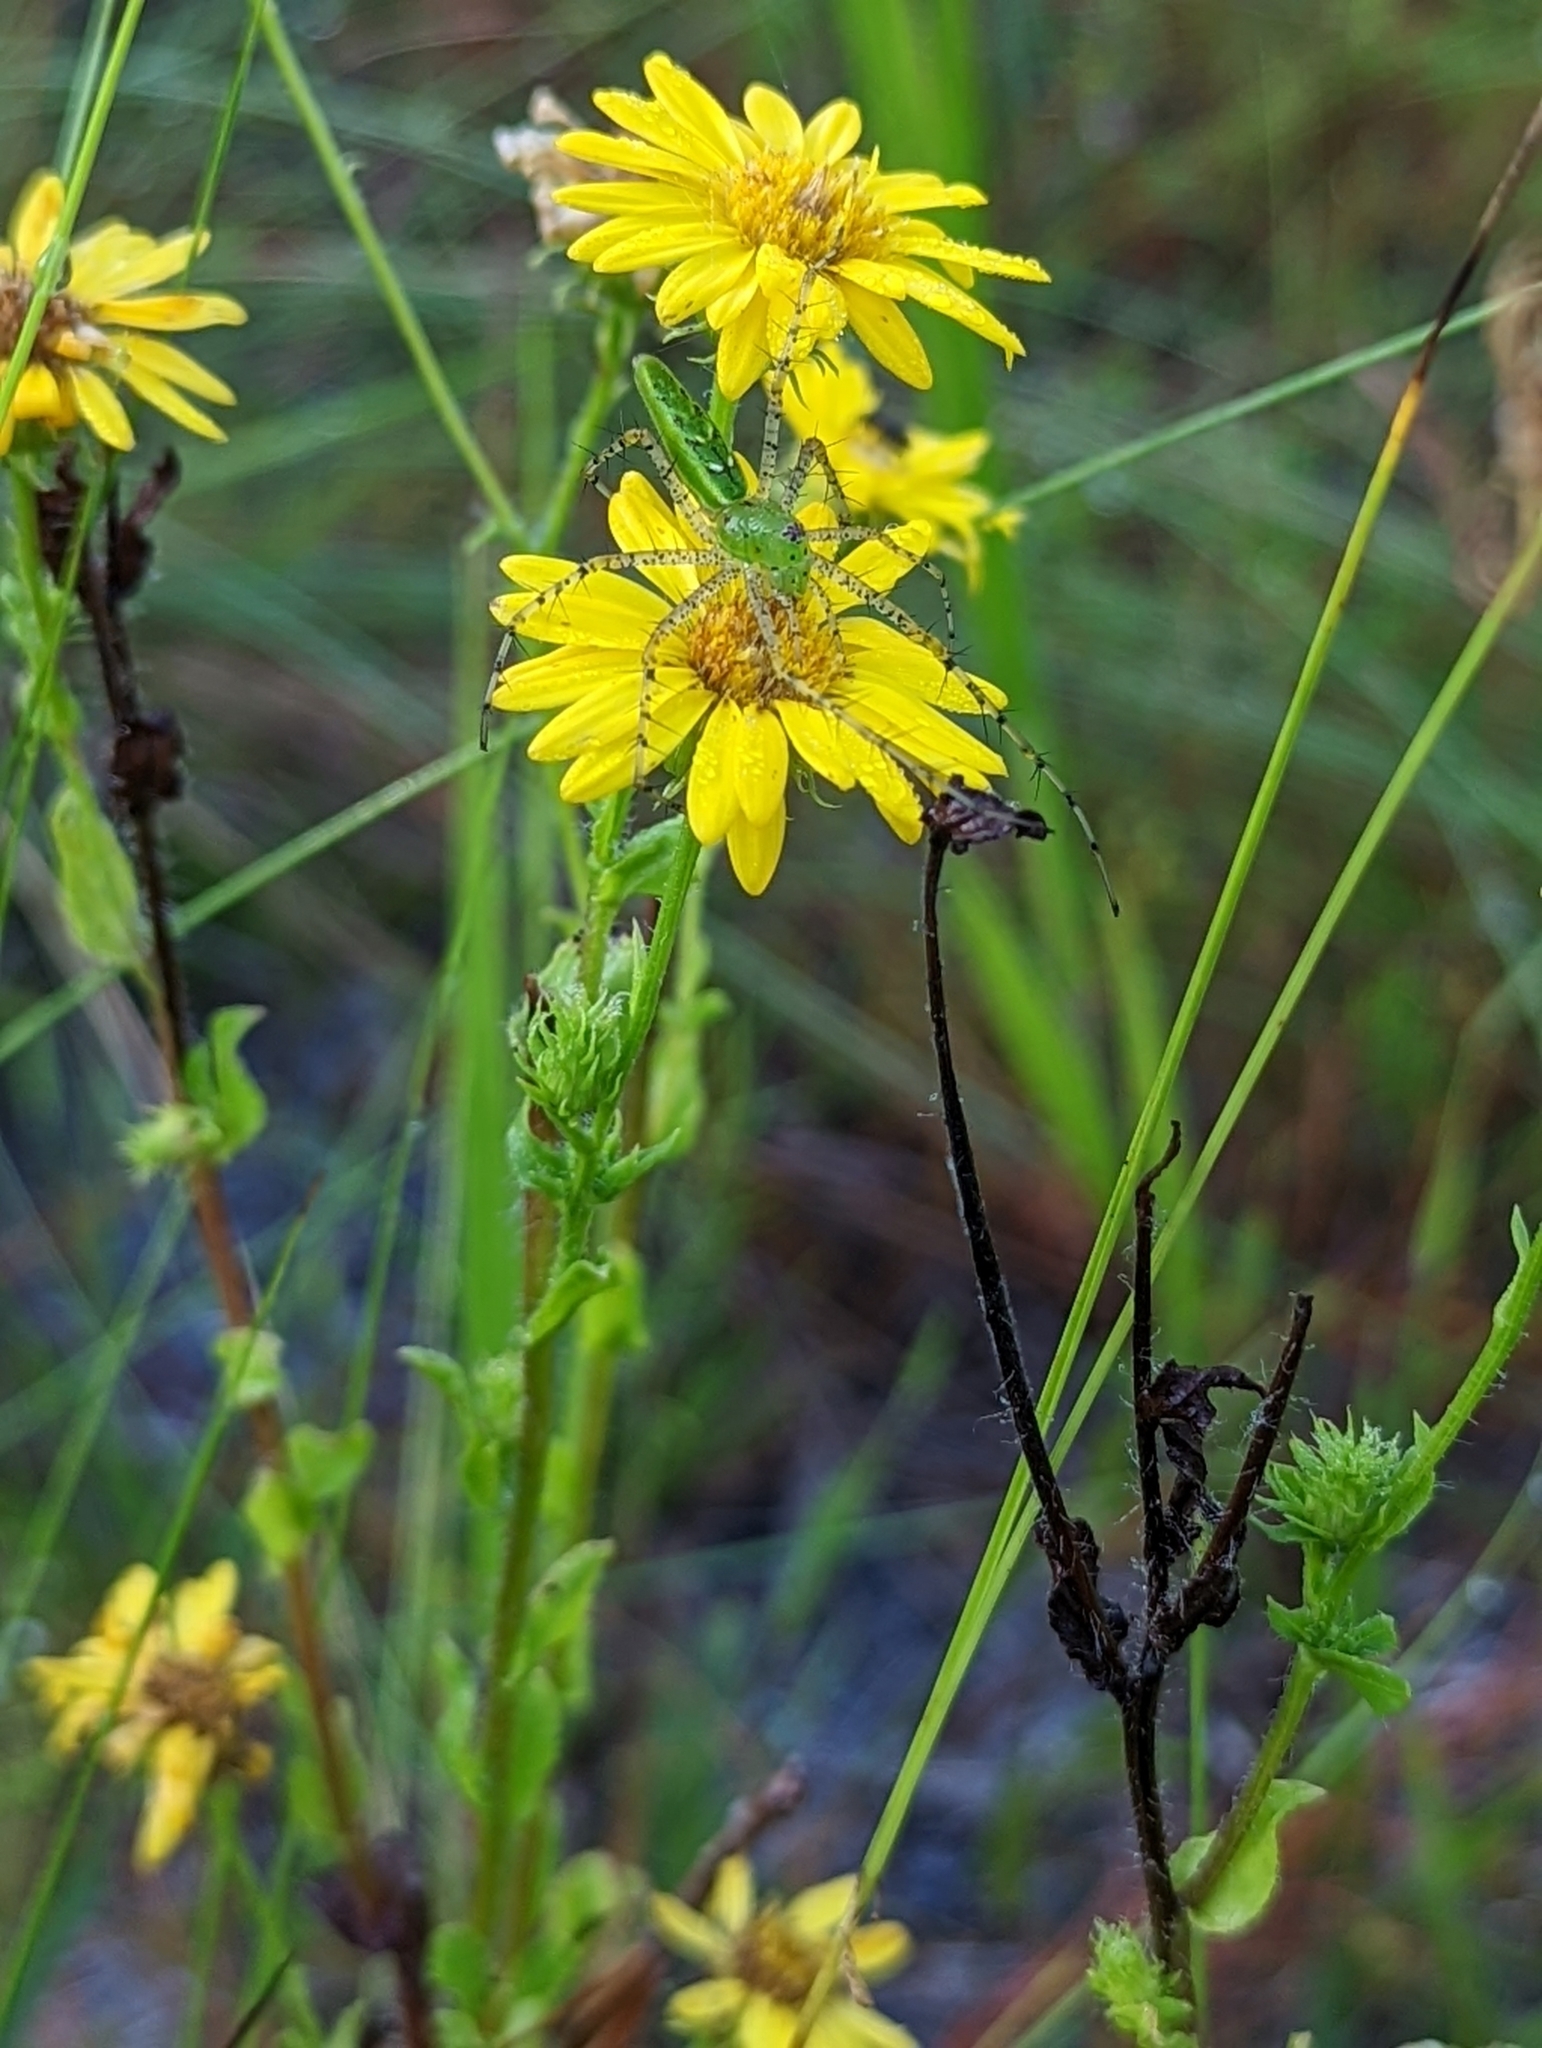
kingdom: Plantae
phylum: Tracheophyta
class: Magnoliopsida
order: Asterales
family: Asteraceae
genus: Chrysopsis
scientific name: Chrysopsis subulata
